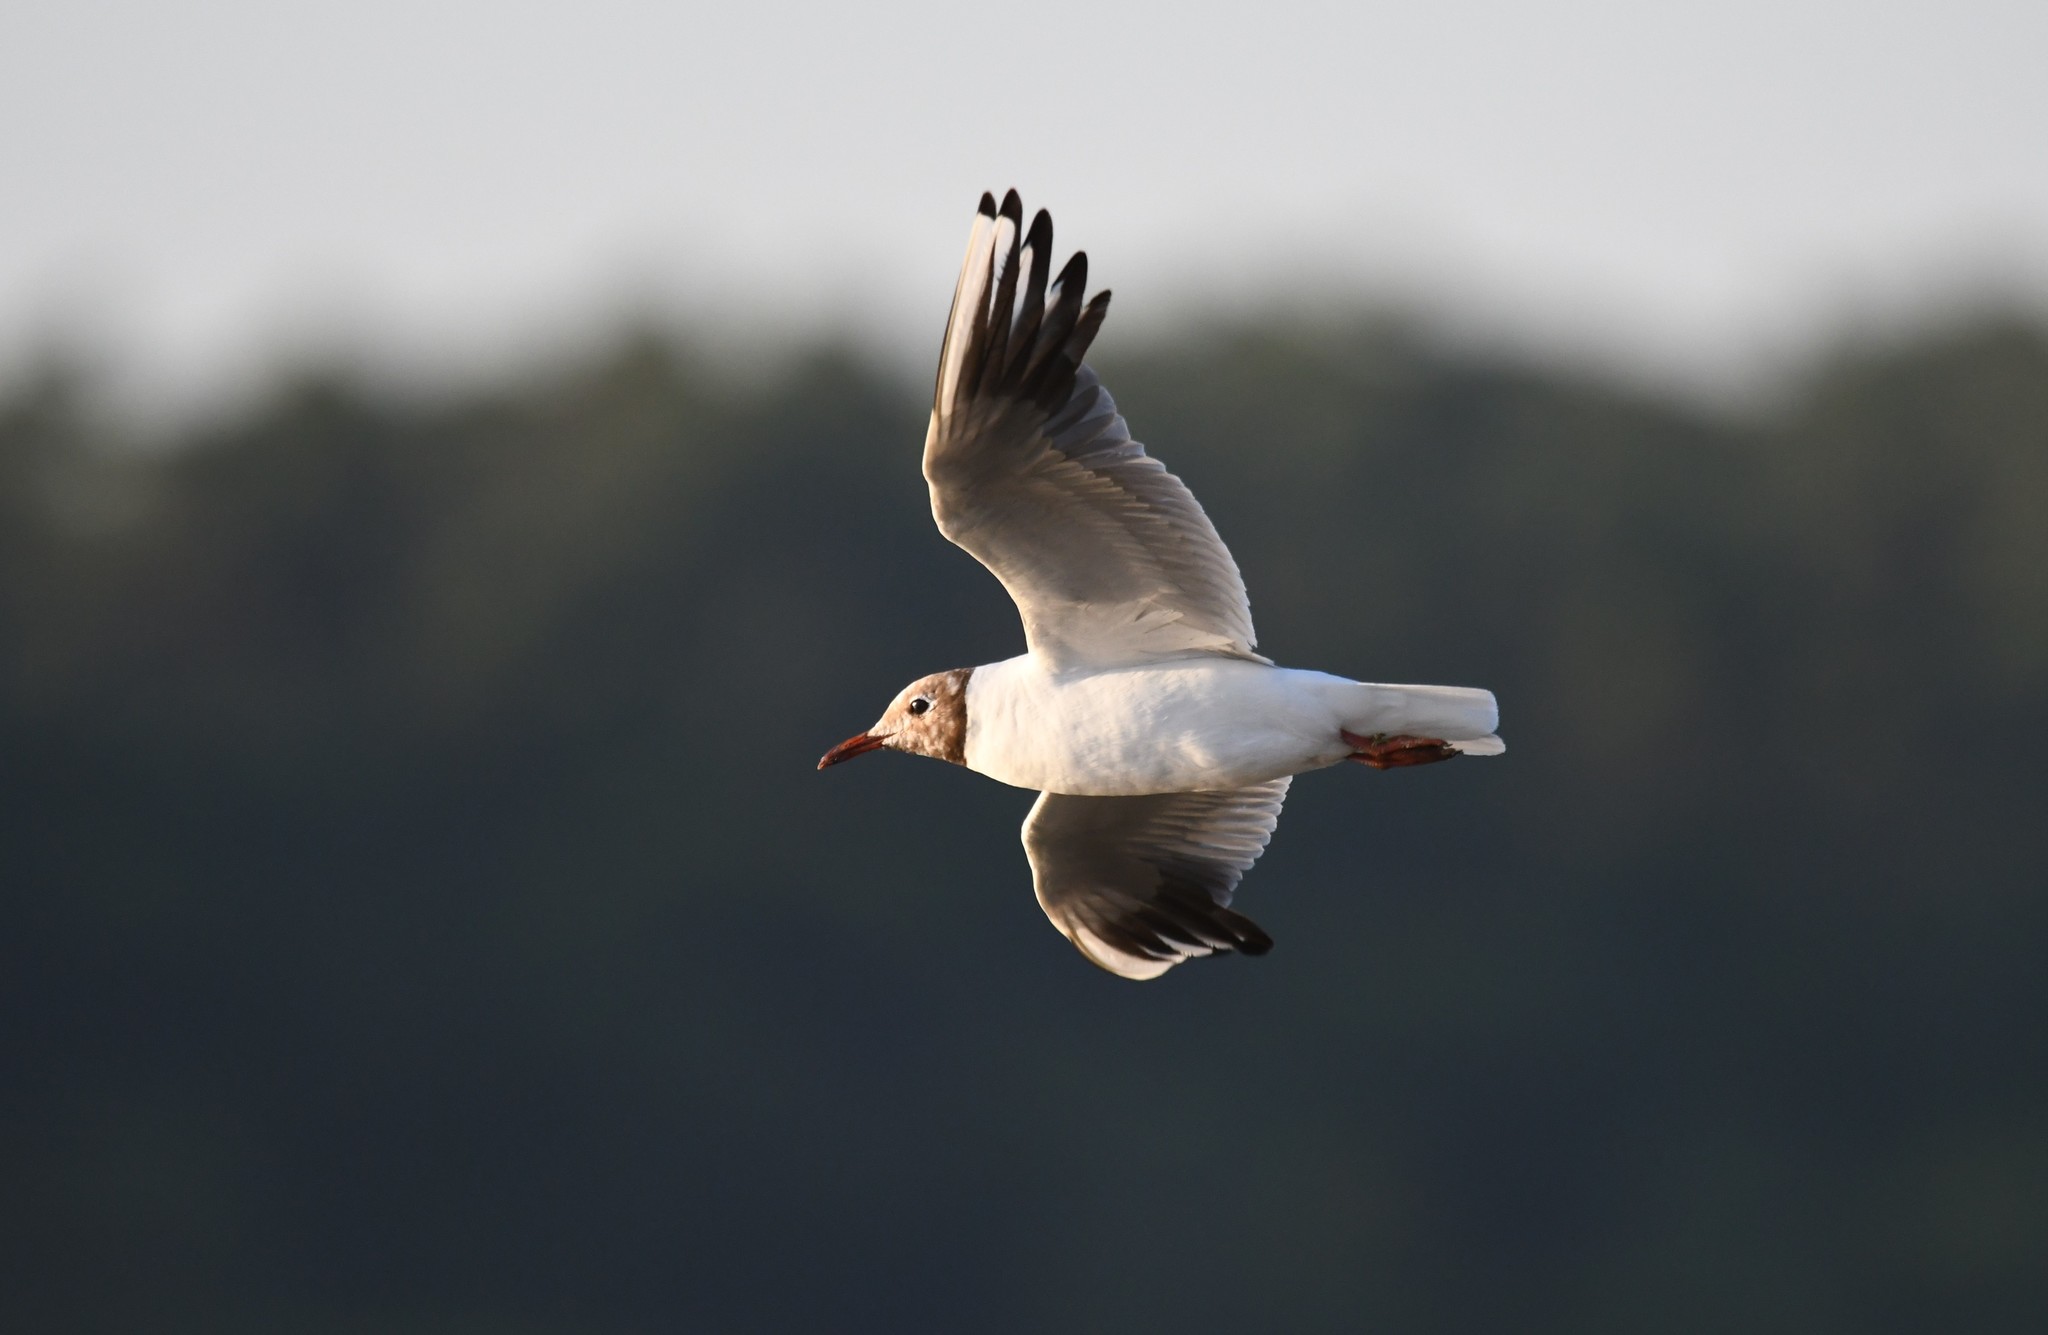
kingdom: Animalia
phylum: Chordata
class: Aves
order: Charadriiformes
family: Laridae
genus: Chroicocephalus
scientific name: Chroicocephalus ridibundus
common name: Black-headed gull
